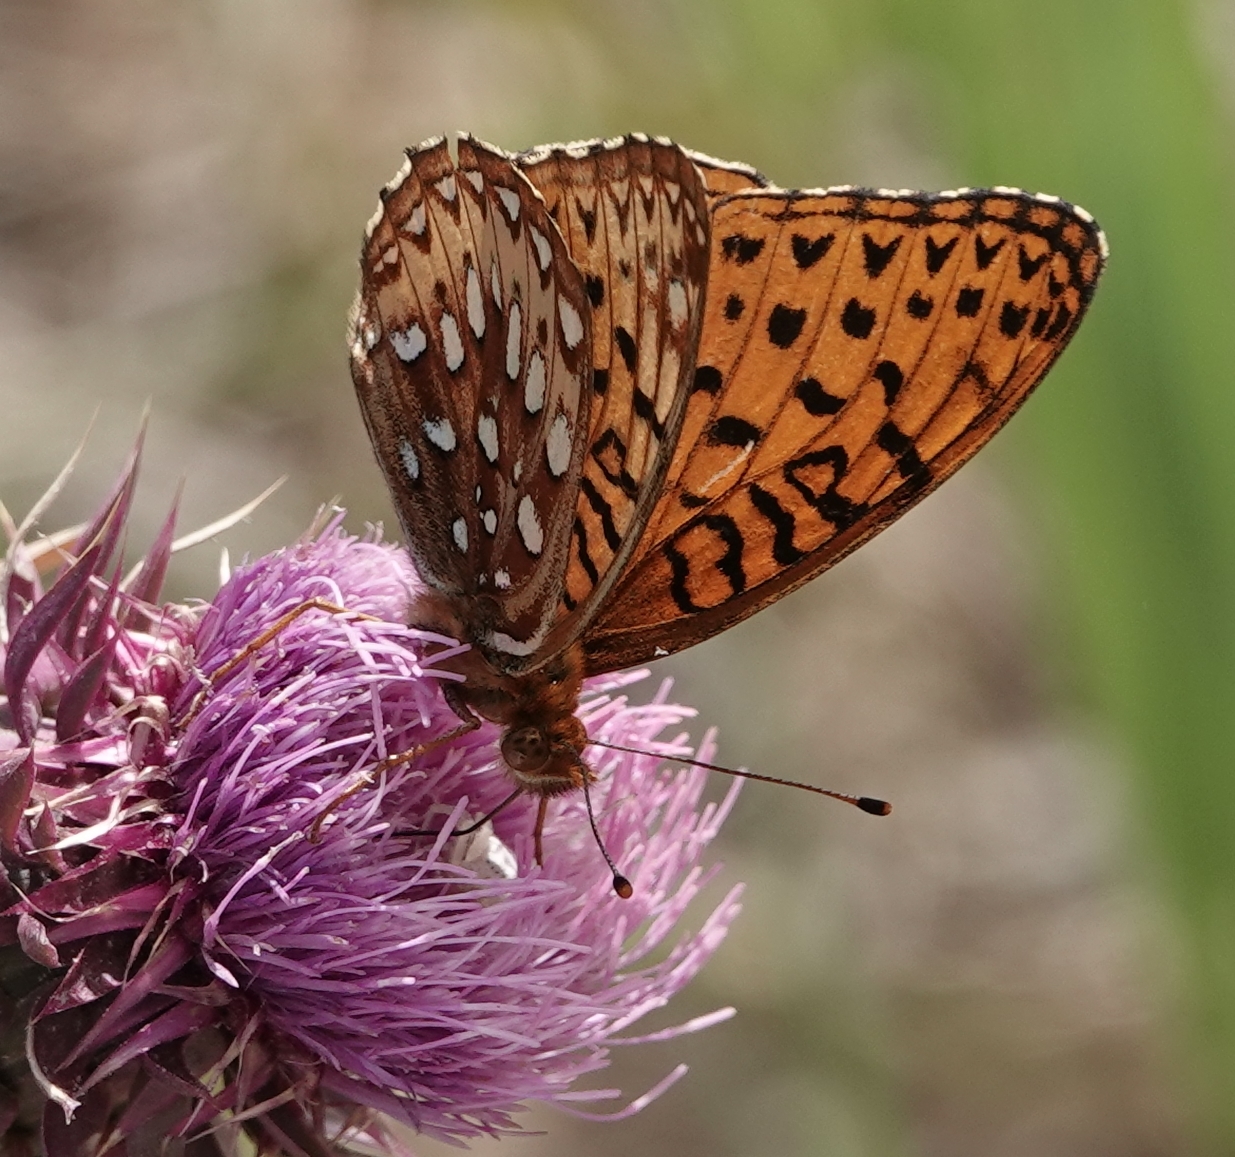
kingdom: Animalia
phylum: Arthropoda
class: Insecta
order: Lepidoptera
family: Nymphalidae
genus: Speyeria
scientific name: Speyeria aphrodite
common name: Aphrodite friitllary
